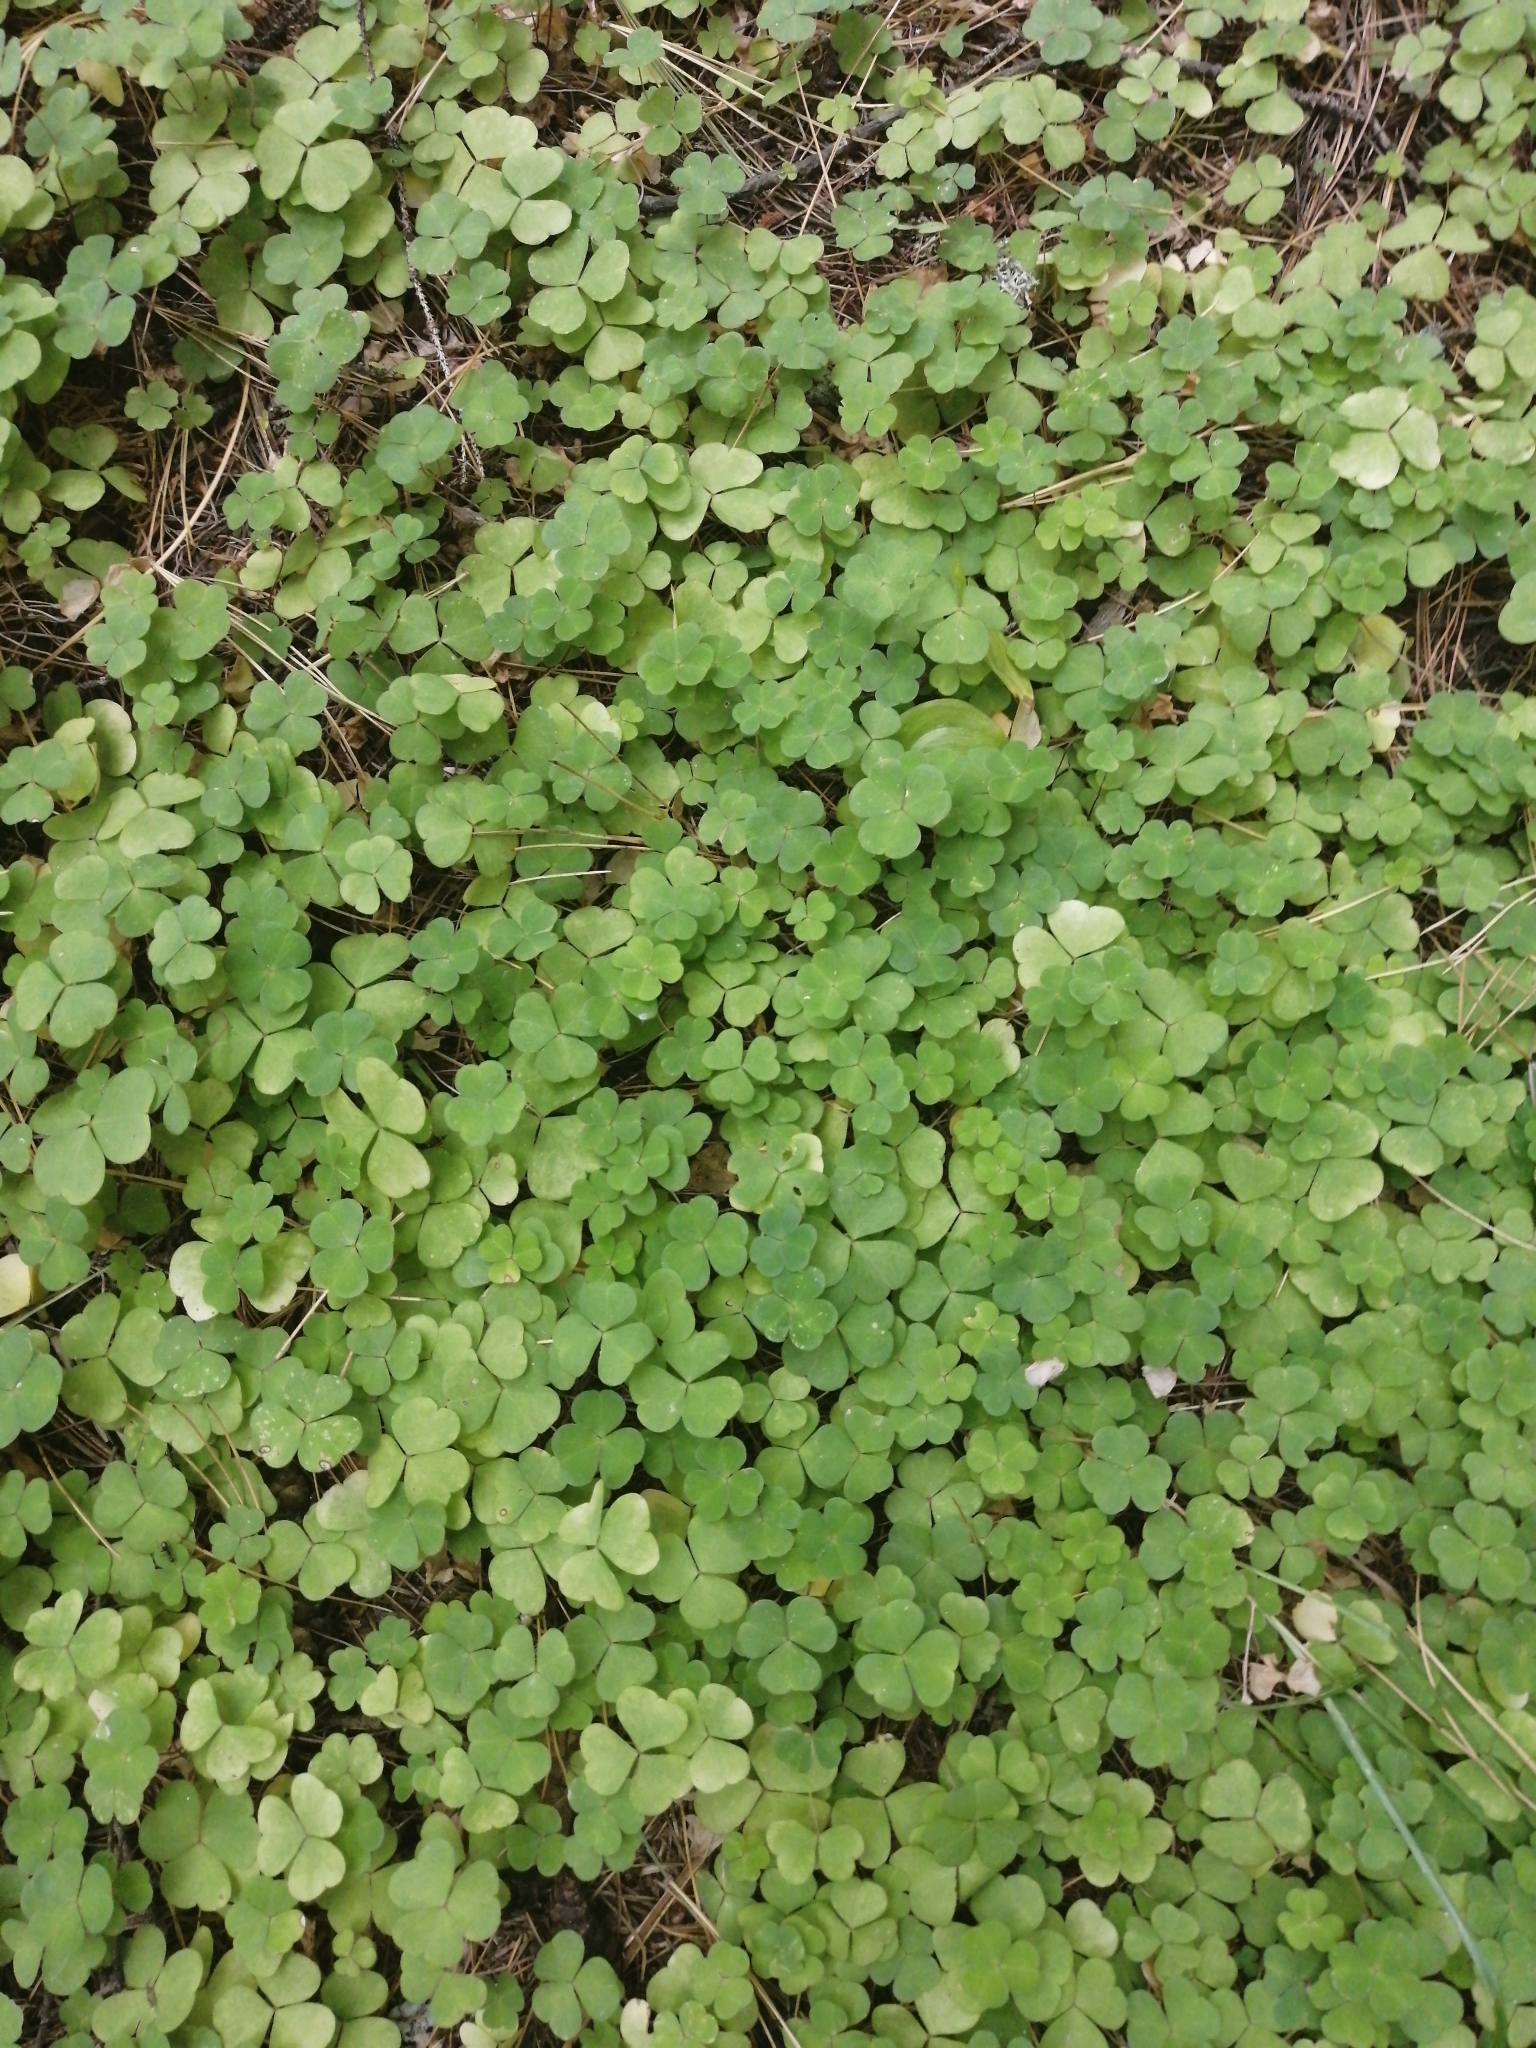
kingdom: Plantae
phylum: Tracheophyta
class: Magnoliopsida
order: Oxalidales
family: Oxalidaceae
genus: Oxalis
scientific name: Oxalis acetosella
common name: Wood-sorrel
